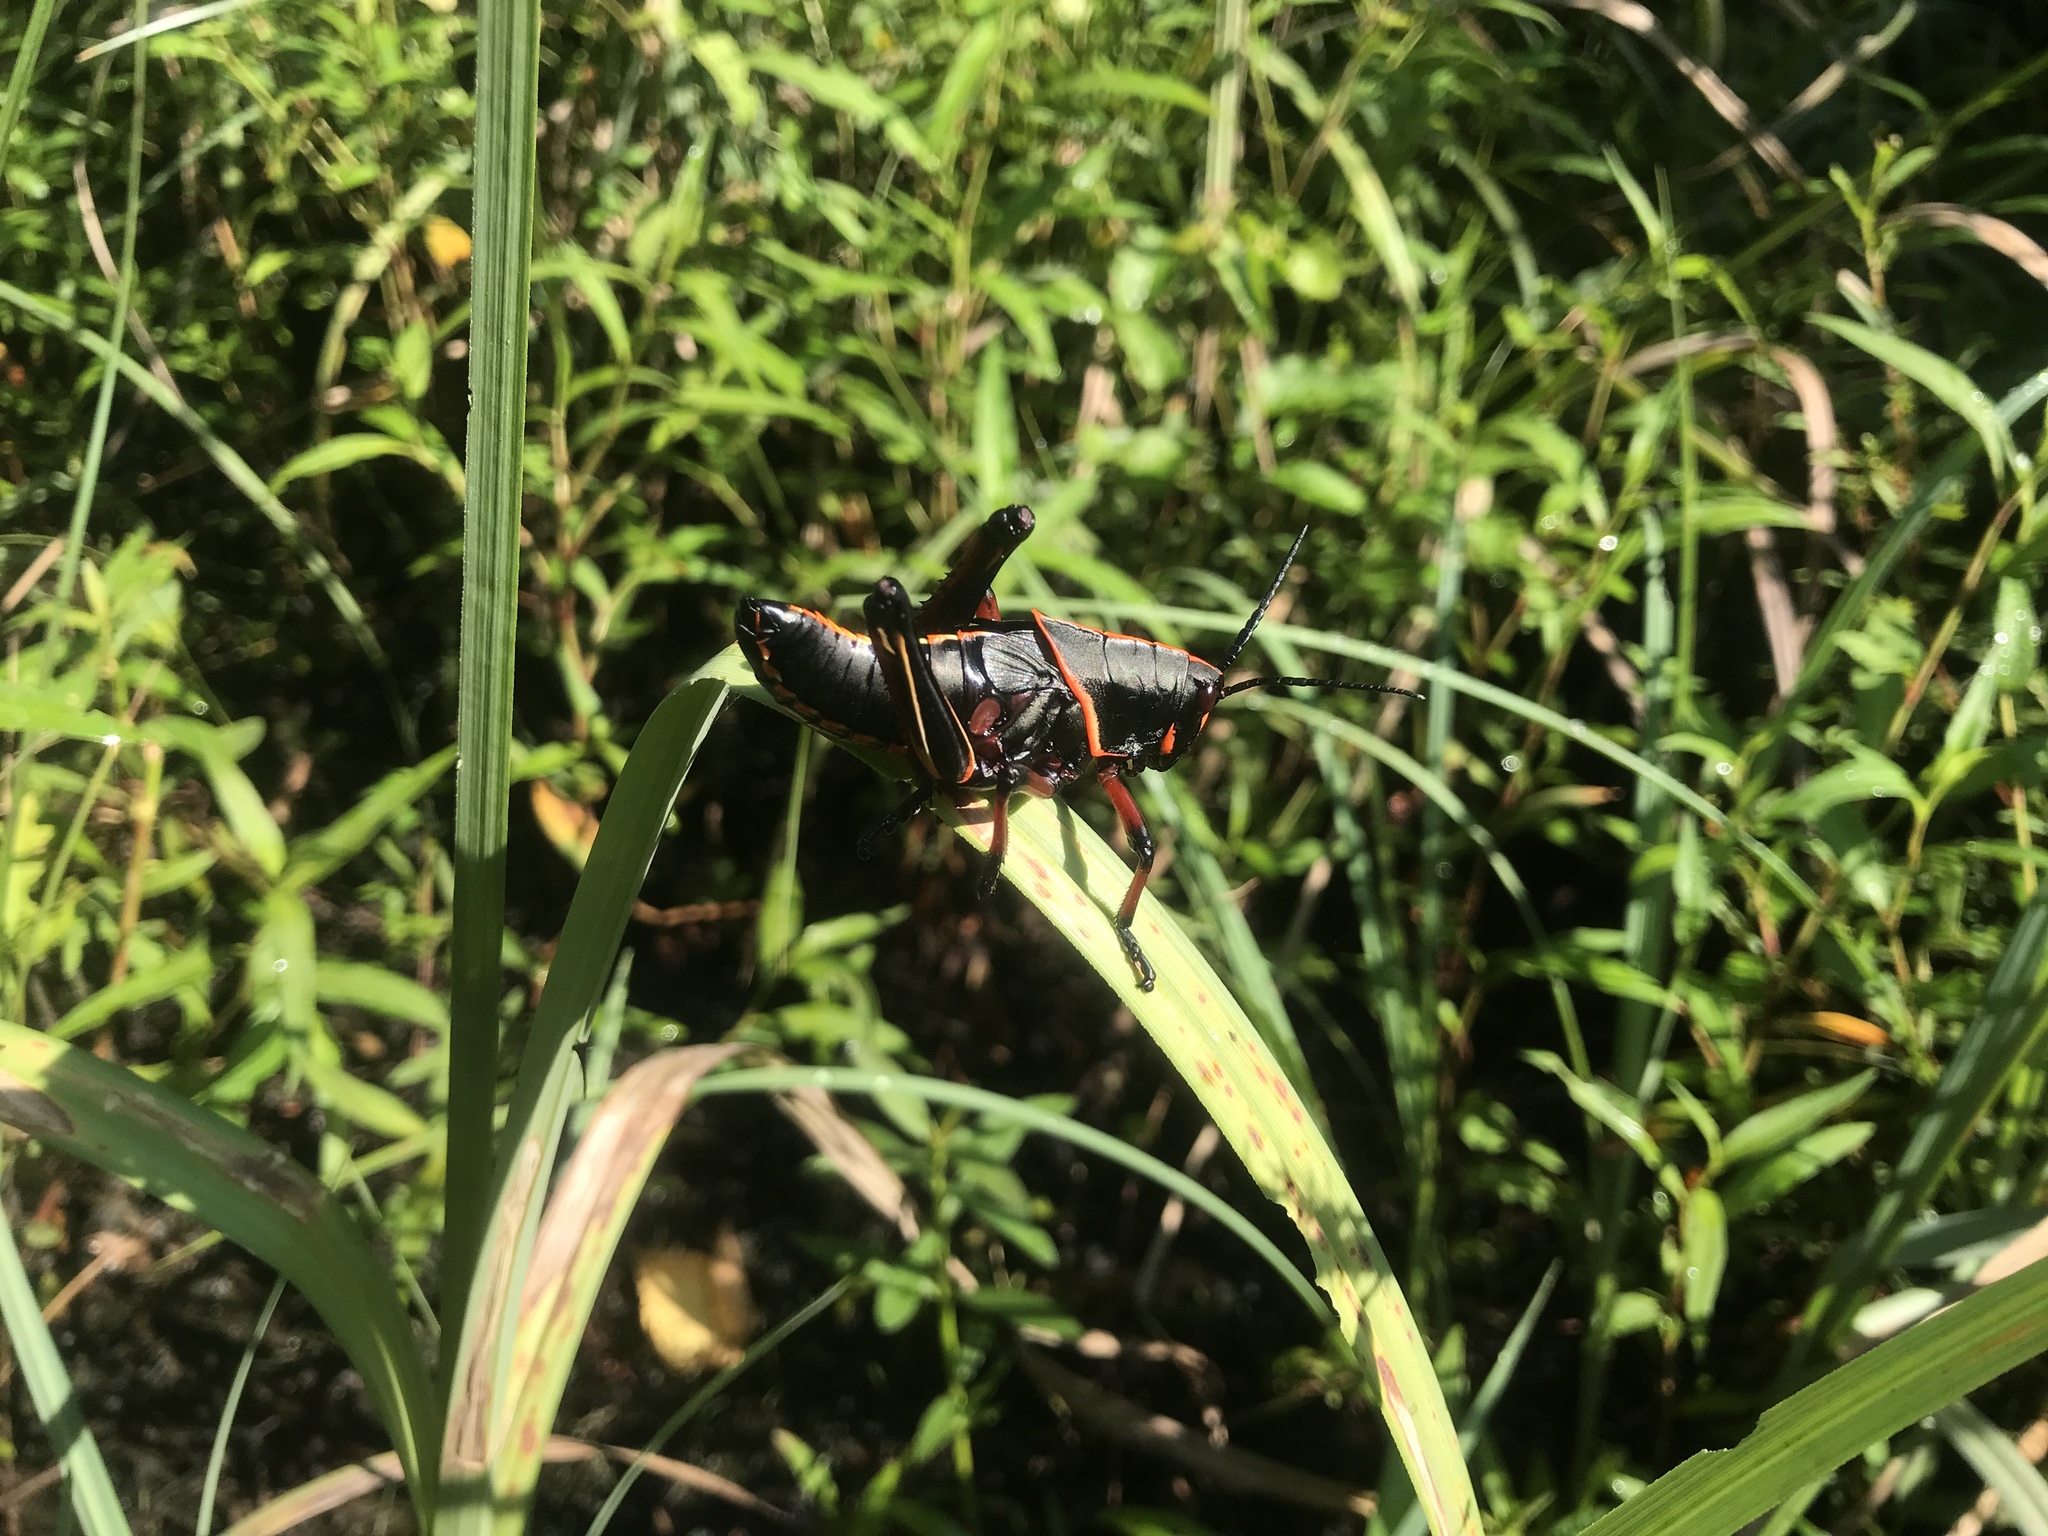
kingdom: Animalia
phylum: Arthropoda
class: Insecta
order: Orthoptera
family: Romaleidae
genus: Romalea
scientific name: Romalea microptera
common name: Eastern lubber grasshopper
